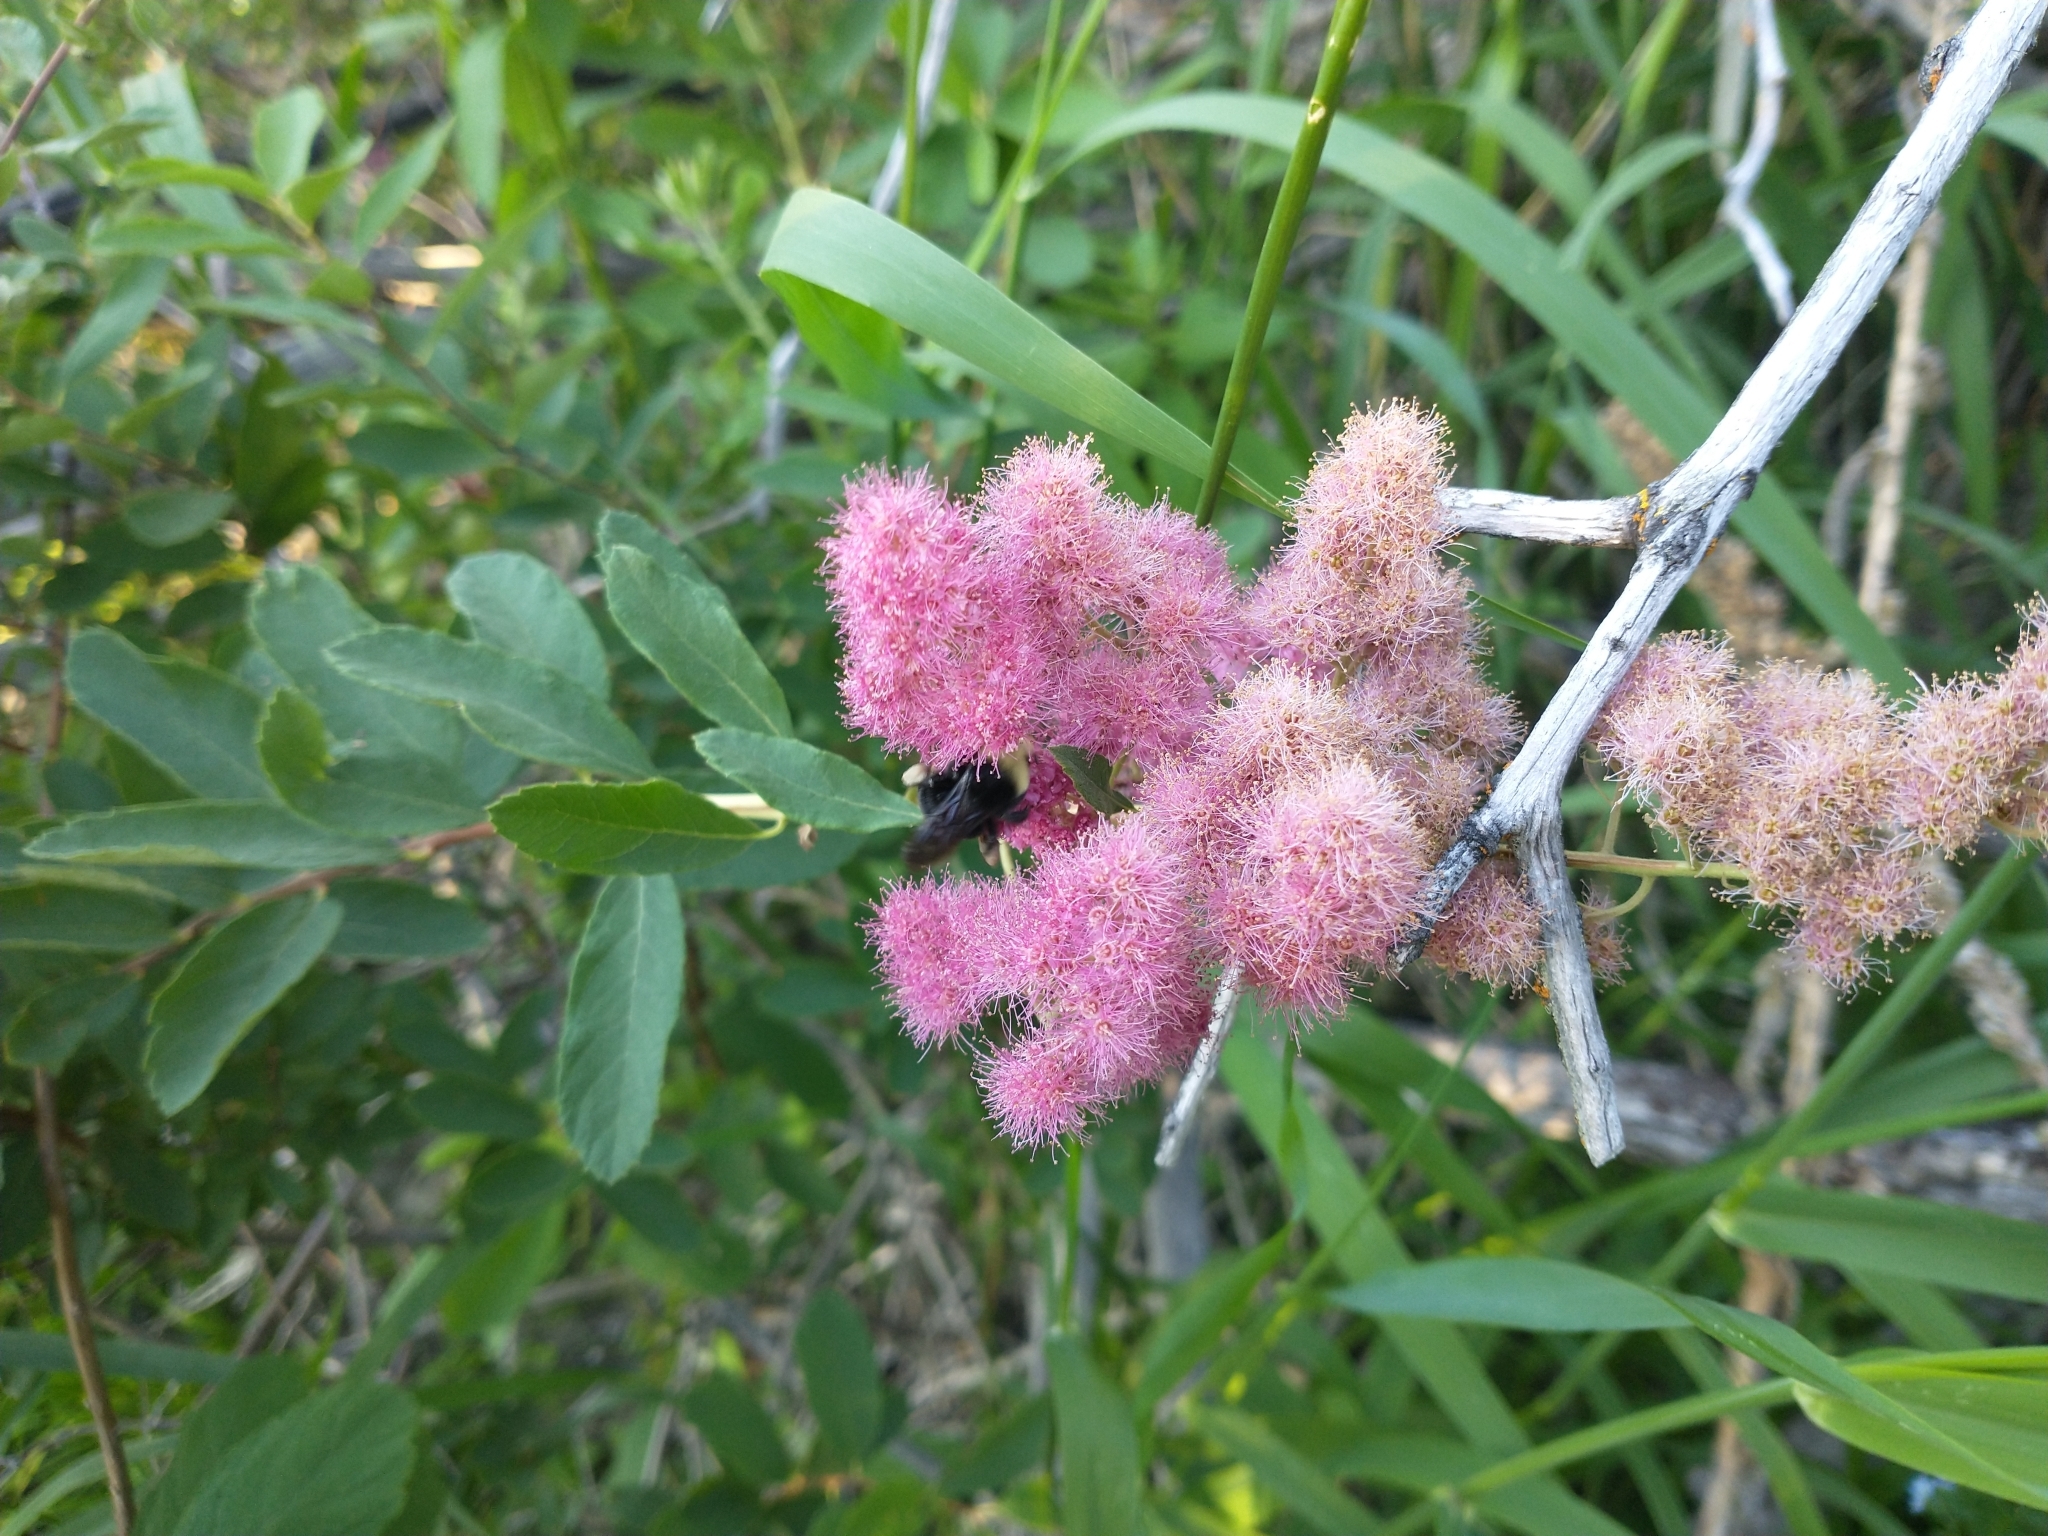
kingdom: Plantae
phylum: Tracheophyta
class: Magnoliopsida
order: Rosales
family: Rosaceae
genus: Spiraea
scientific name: Spiraea douglasii
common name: Steeplebush
